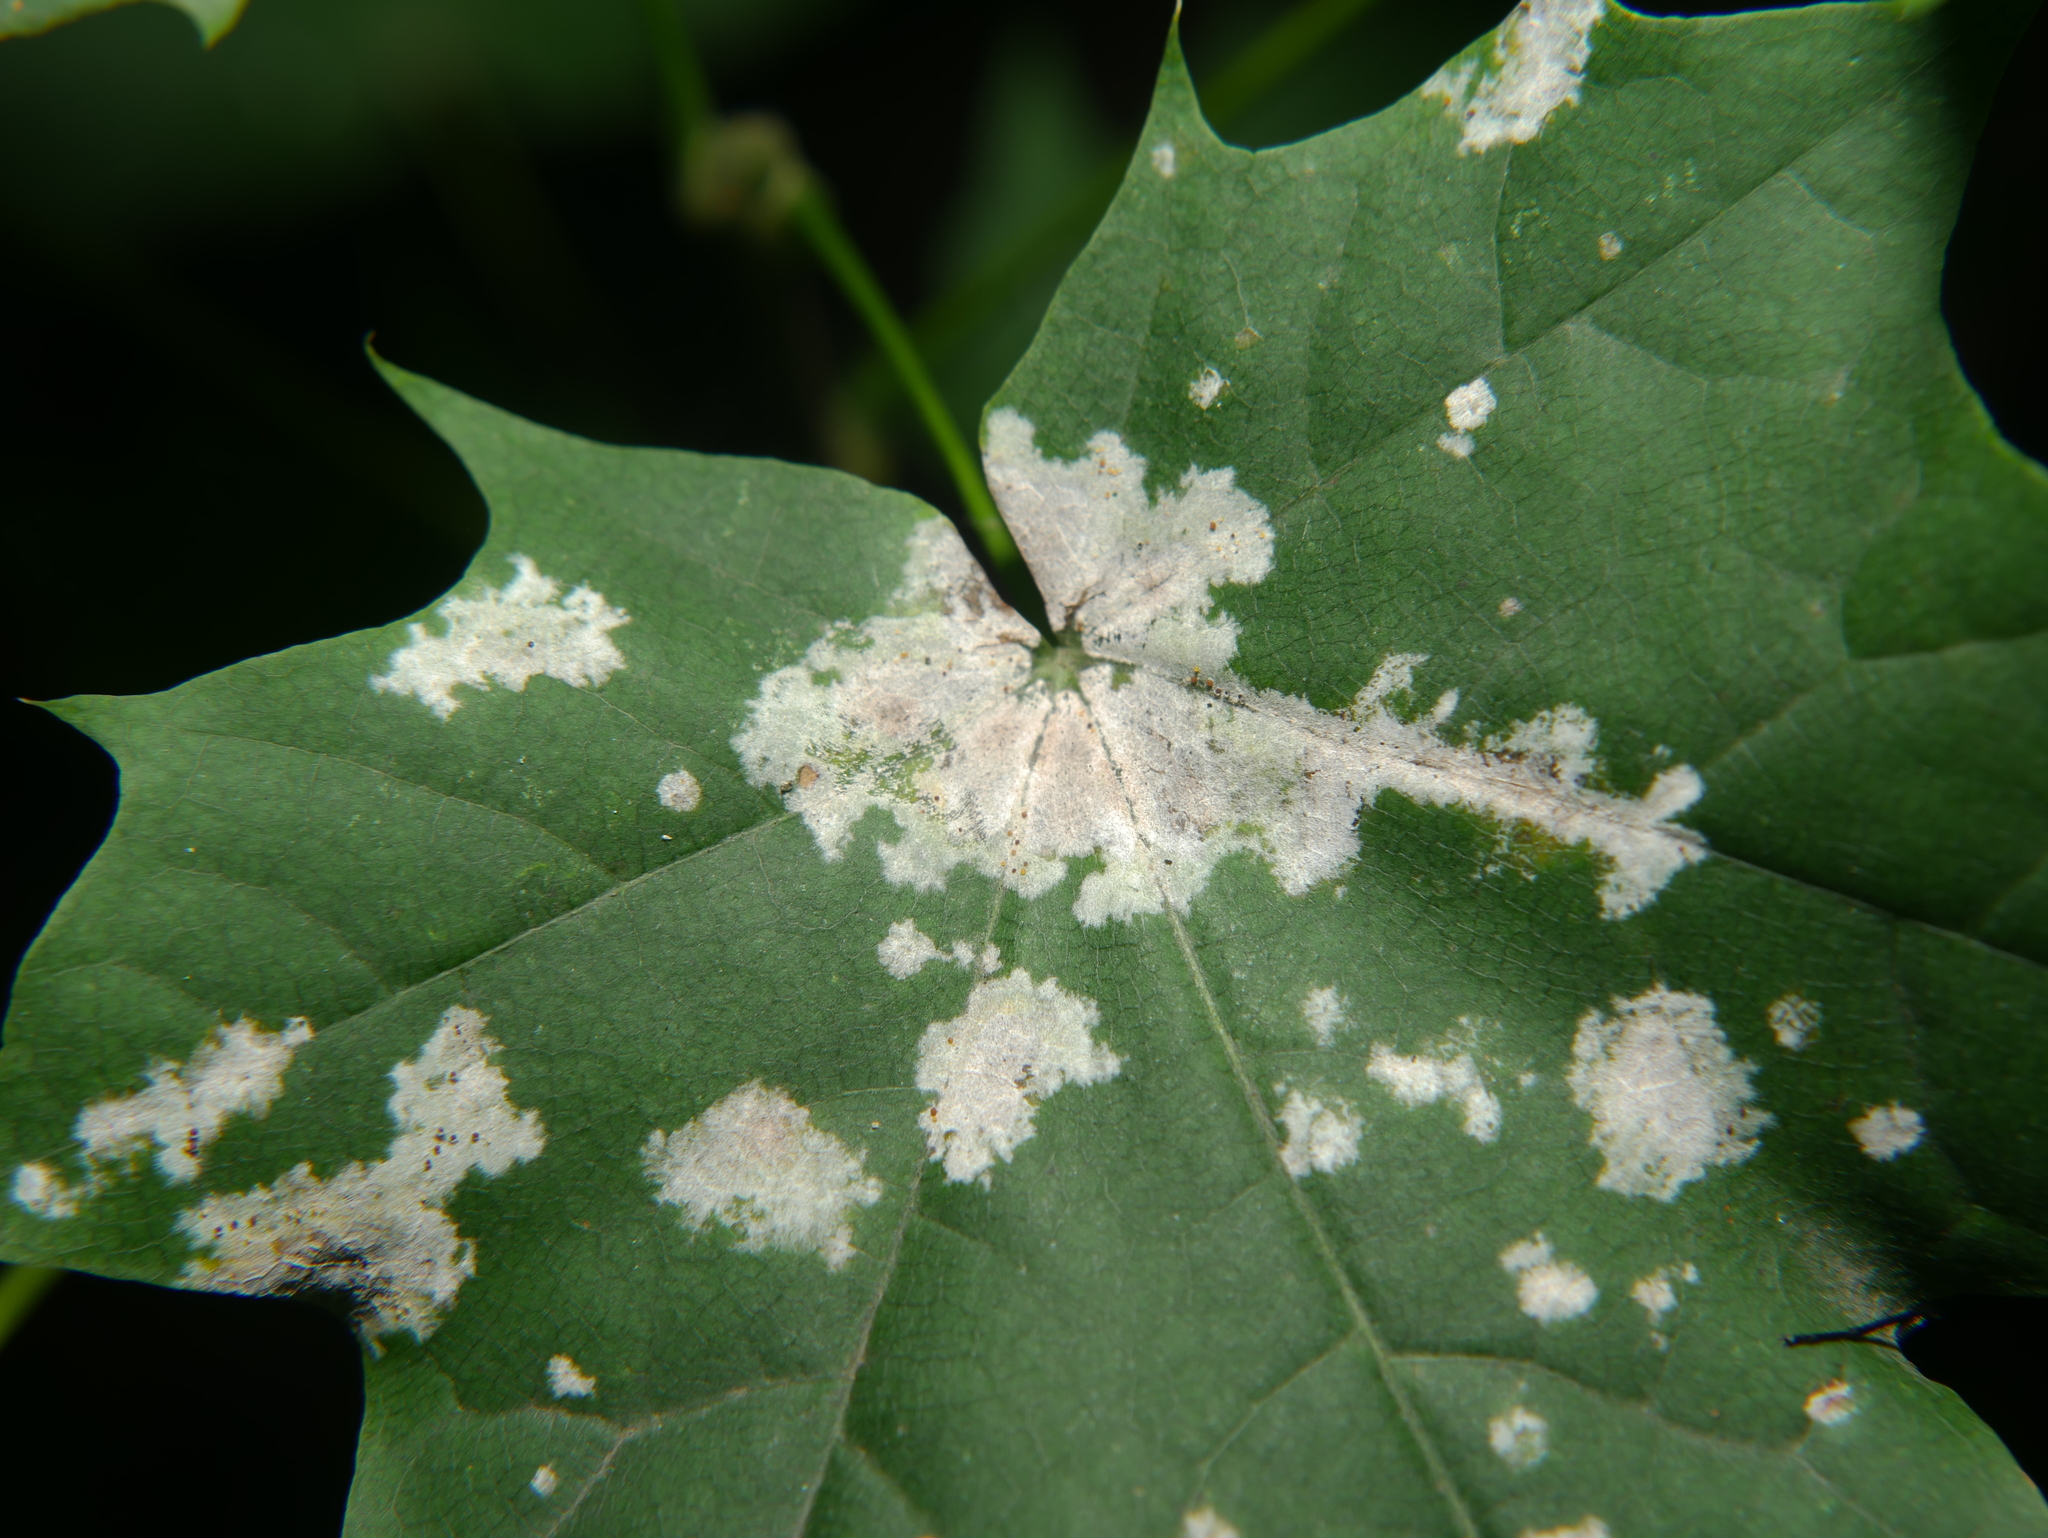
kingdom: Fungi
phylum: Ascomycota
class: Leotiomycetes
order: Helotiales
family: Erysiphaceae
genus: Sawadaea
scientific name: Sawadaea tulasnei
